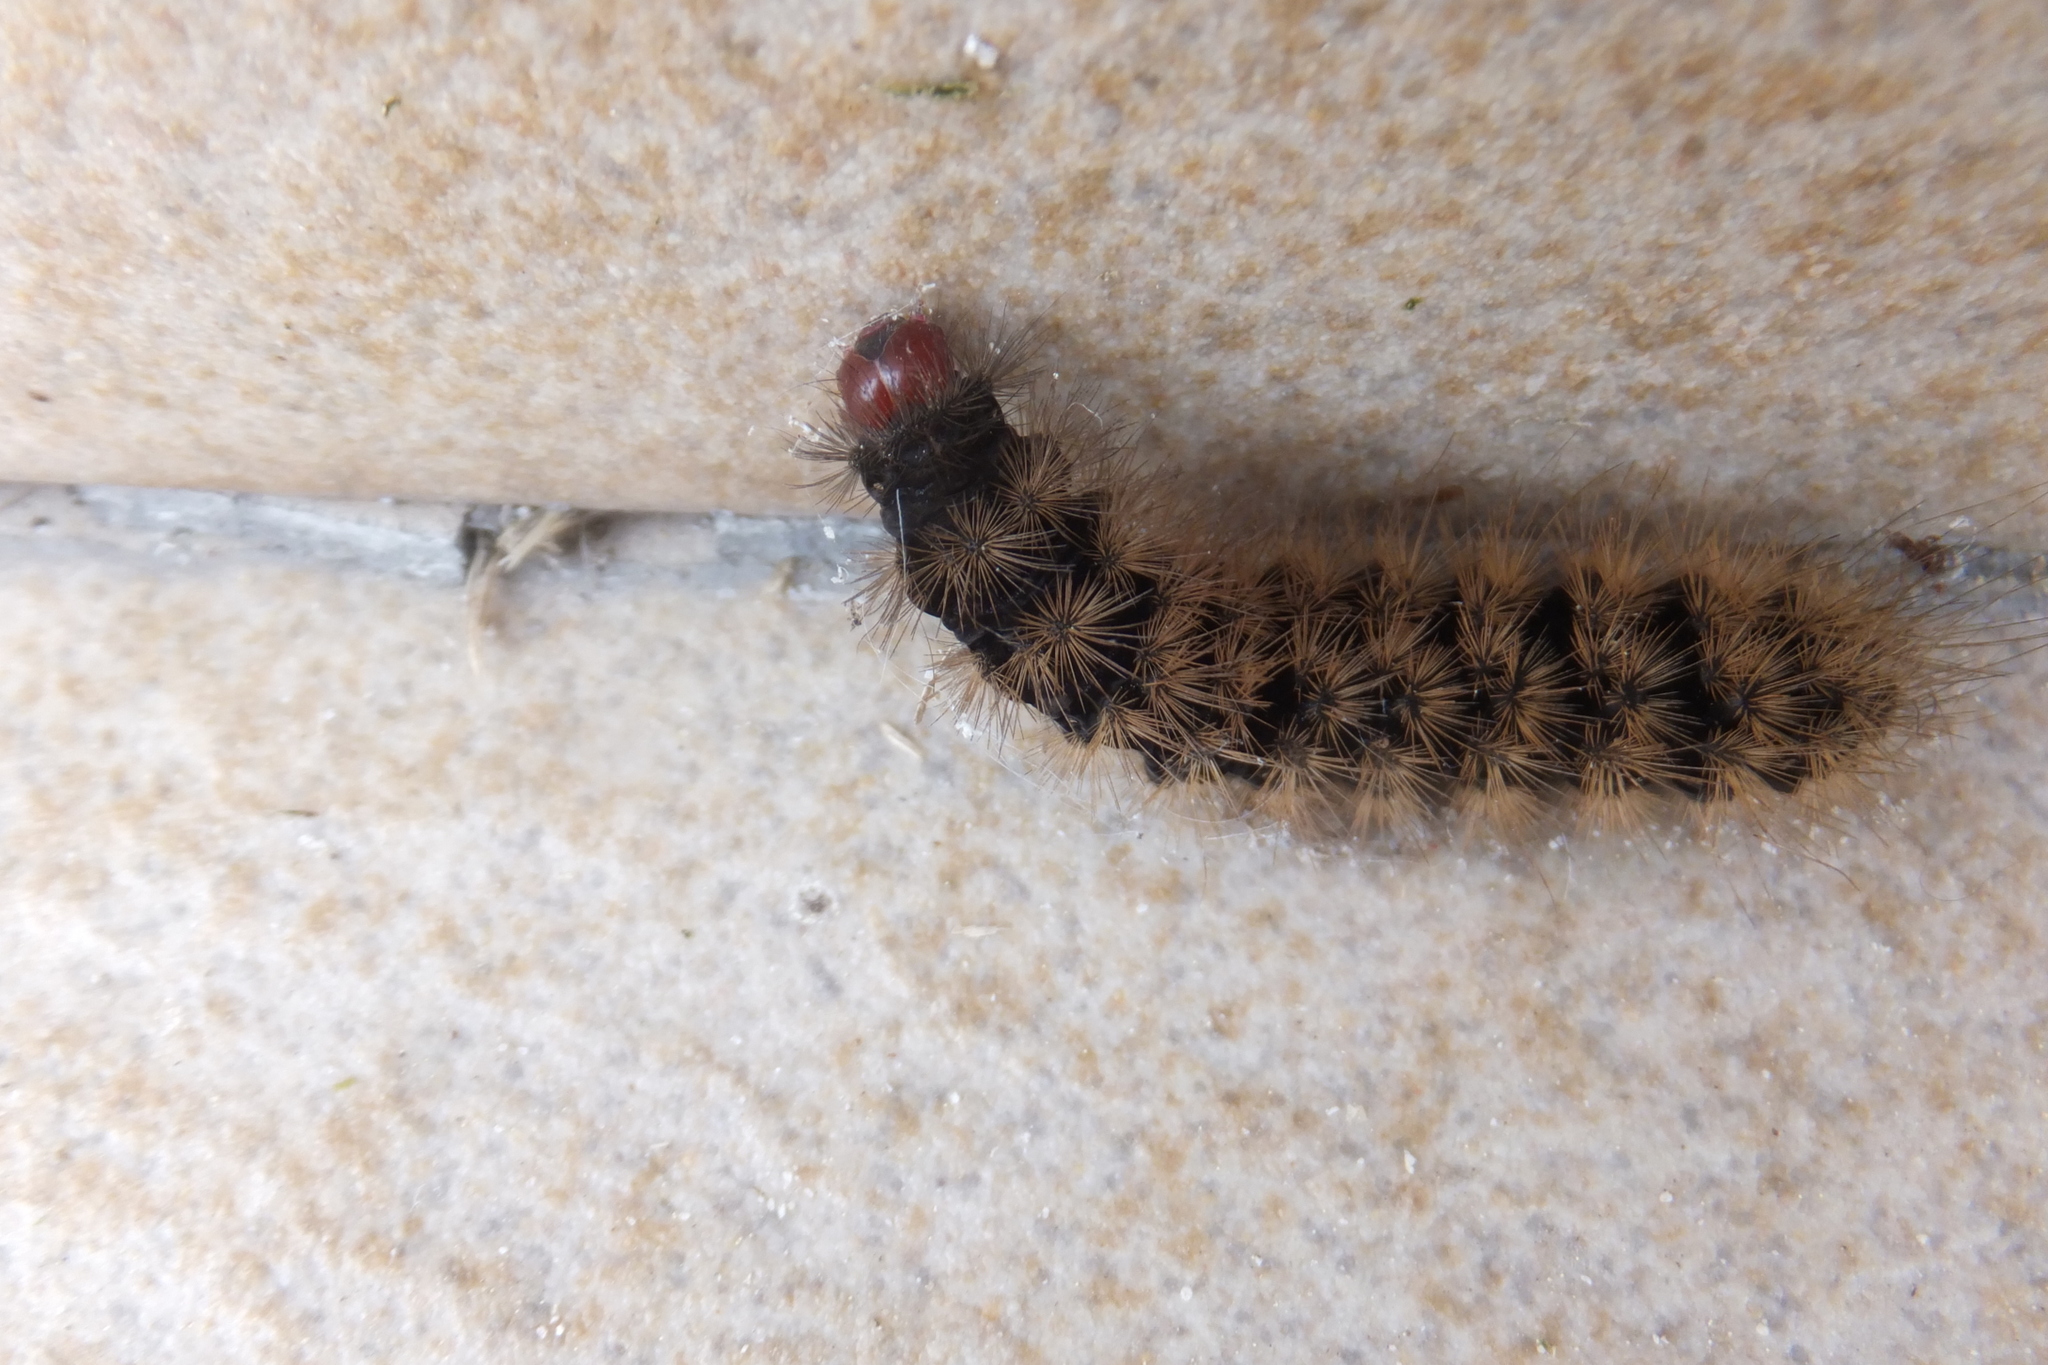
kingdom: Animalia
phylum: Arthropoda
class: Insecta
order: Lepidoptera
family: Erebidae
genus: Epicallia
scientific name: Epicallia villica
